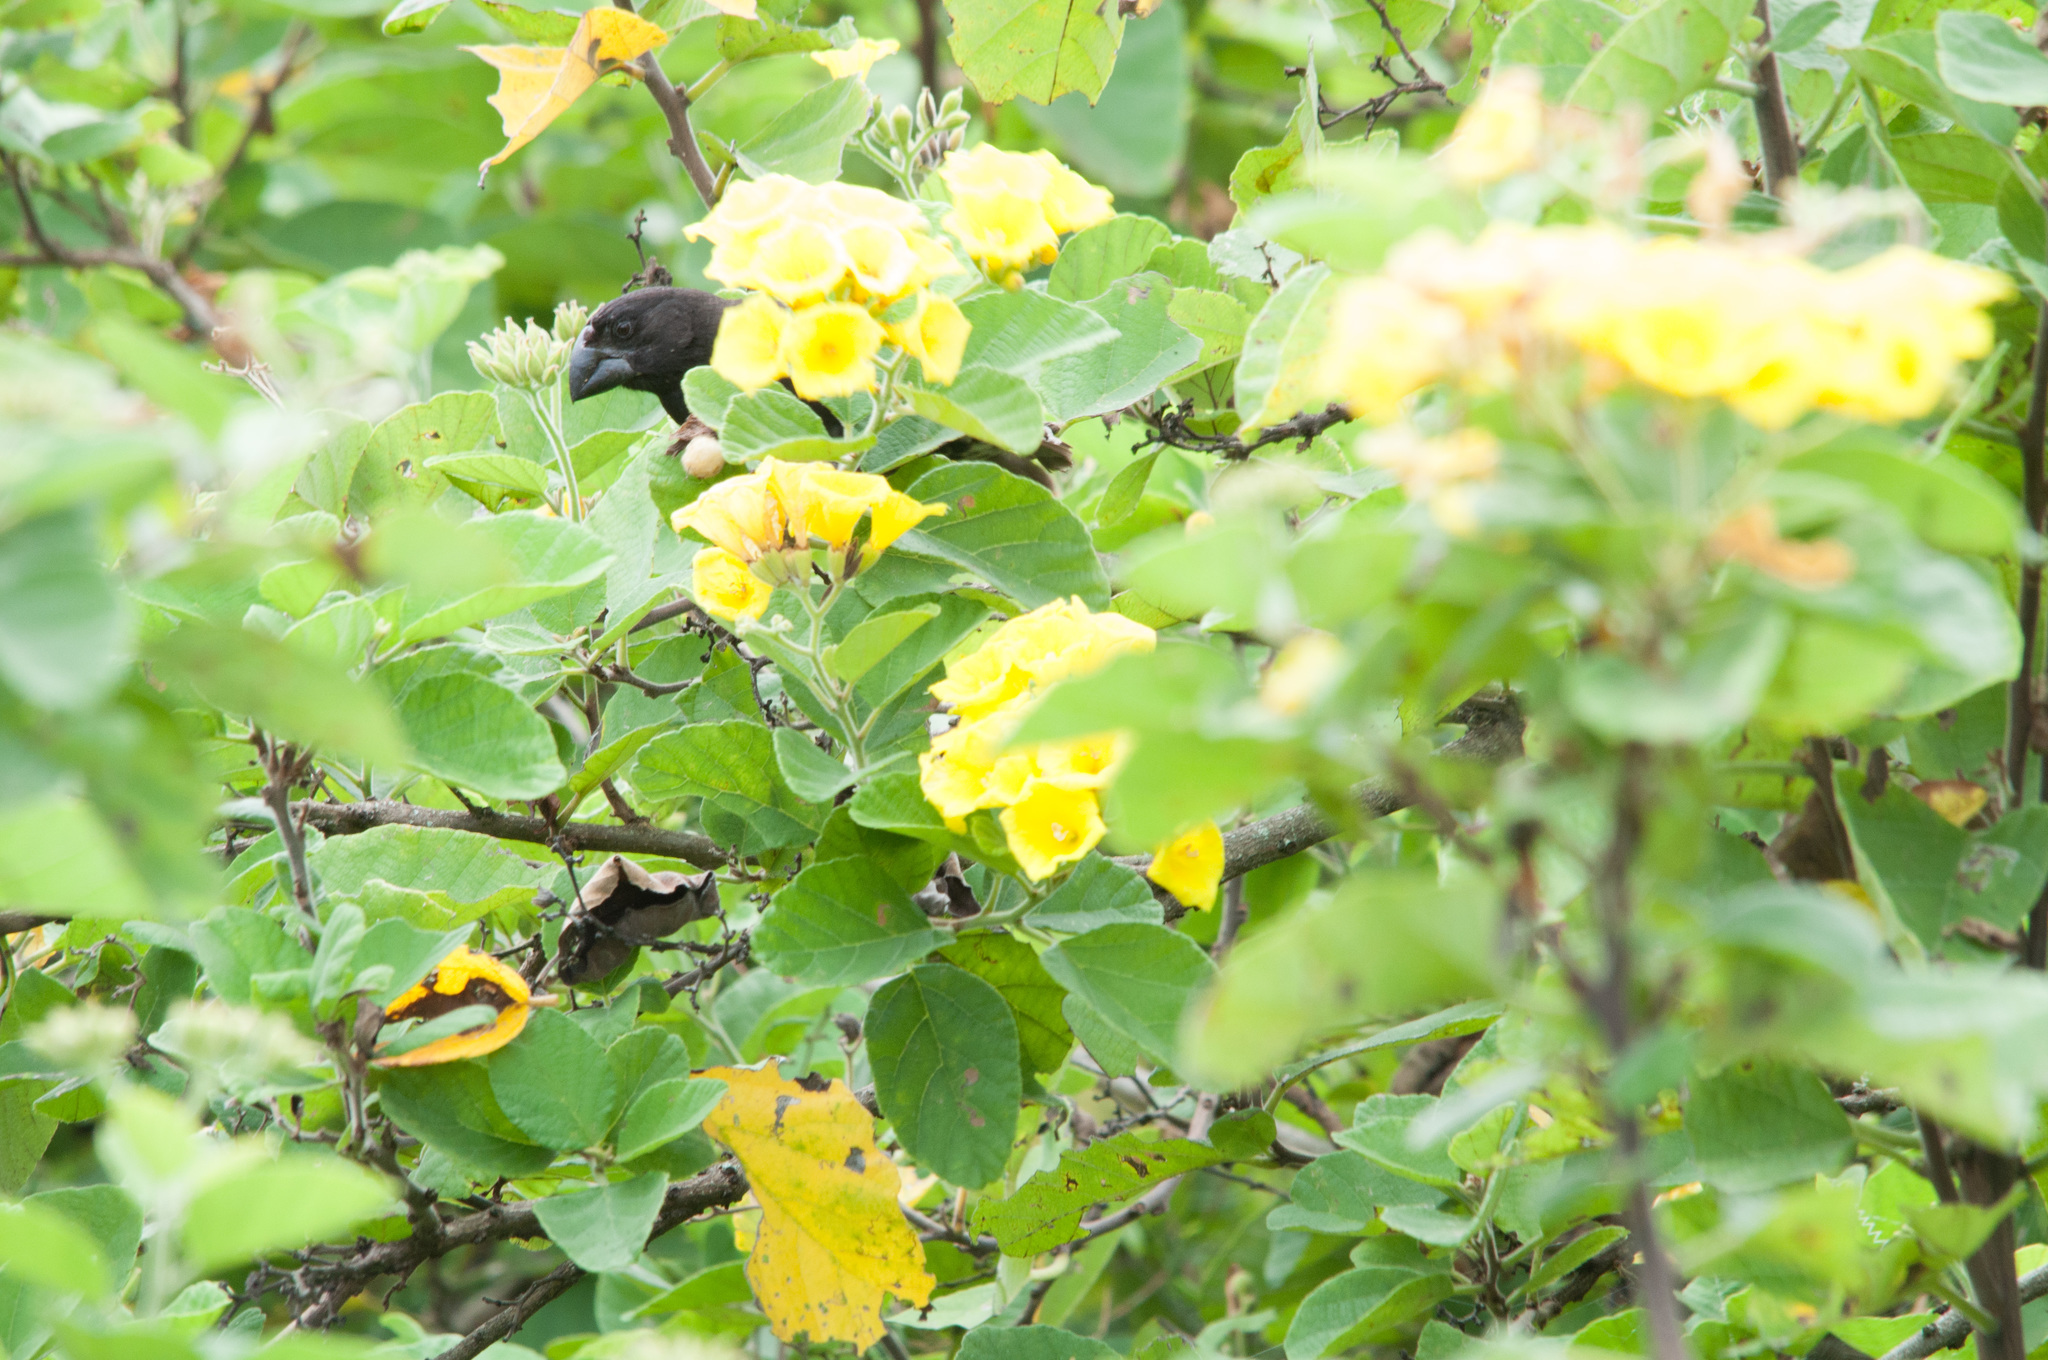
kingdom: Plantae
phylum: Tracheophyta
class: Magnoliopsida
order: Boraginales
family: Cordiaceae
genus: Cordia
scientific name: Cordia lutea
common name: Yellow geiger
